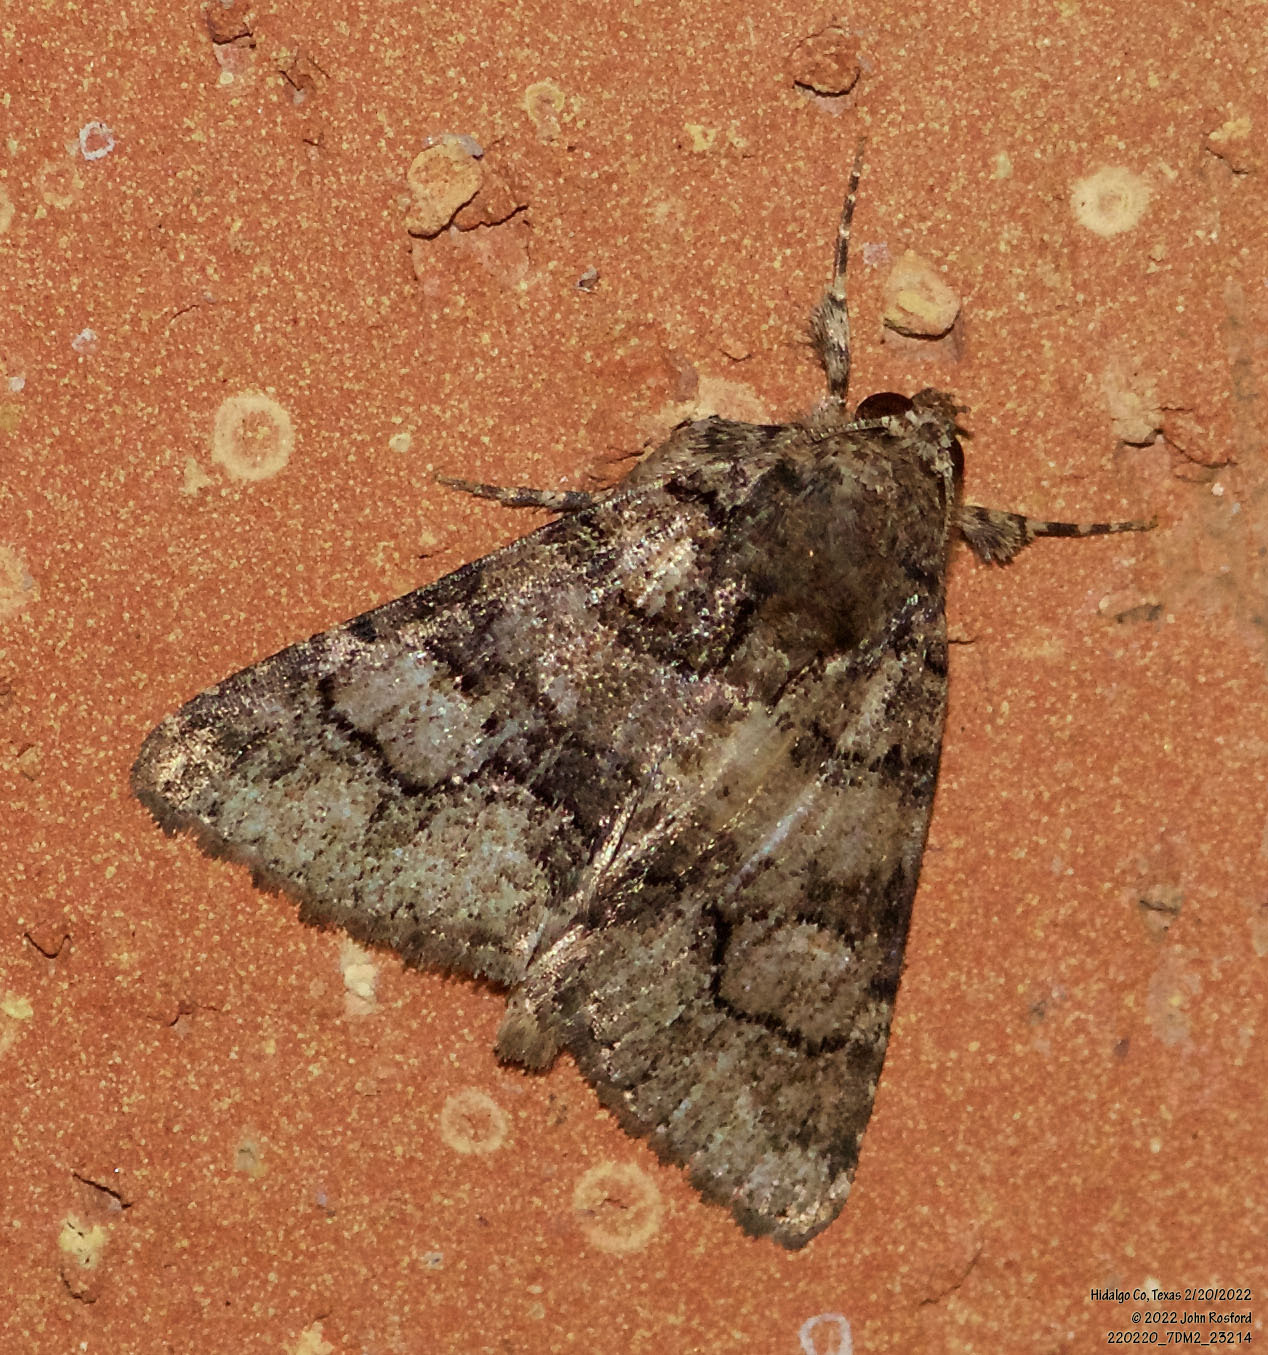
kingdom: Animalia
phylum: Arthropoda
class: Insecta
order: Lepidoptera
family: Erebidae
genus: Elousa
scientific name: Elousa mima
